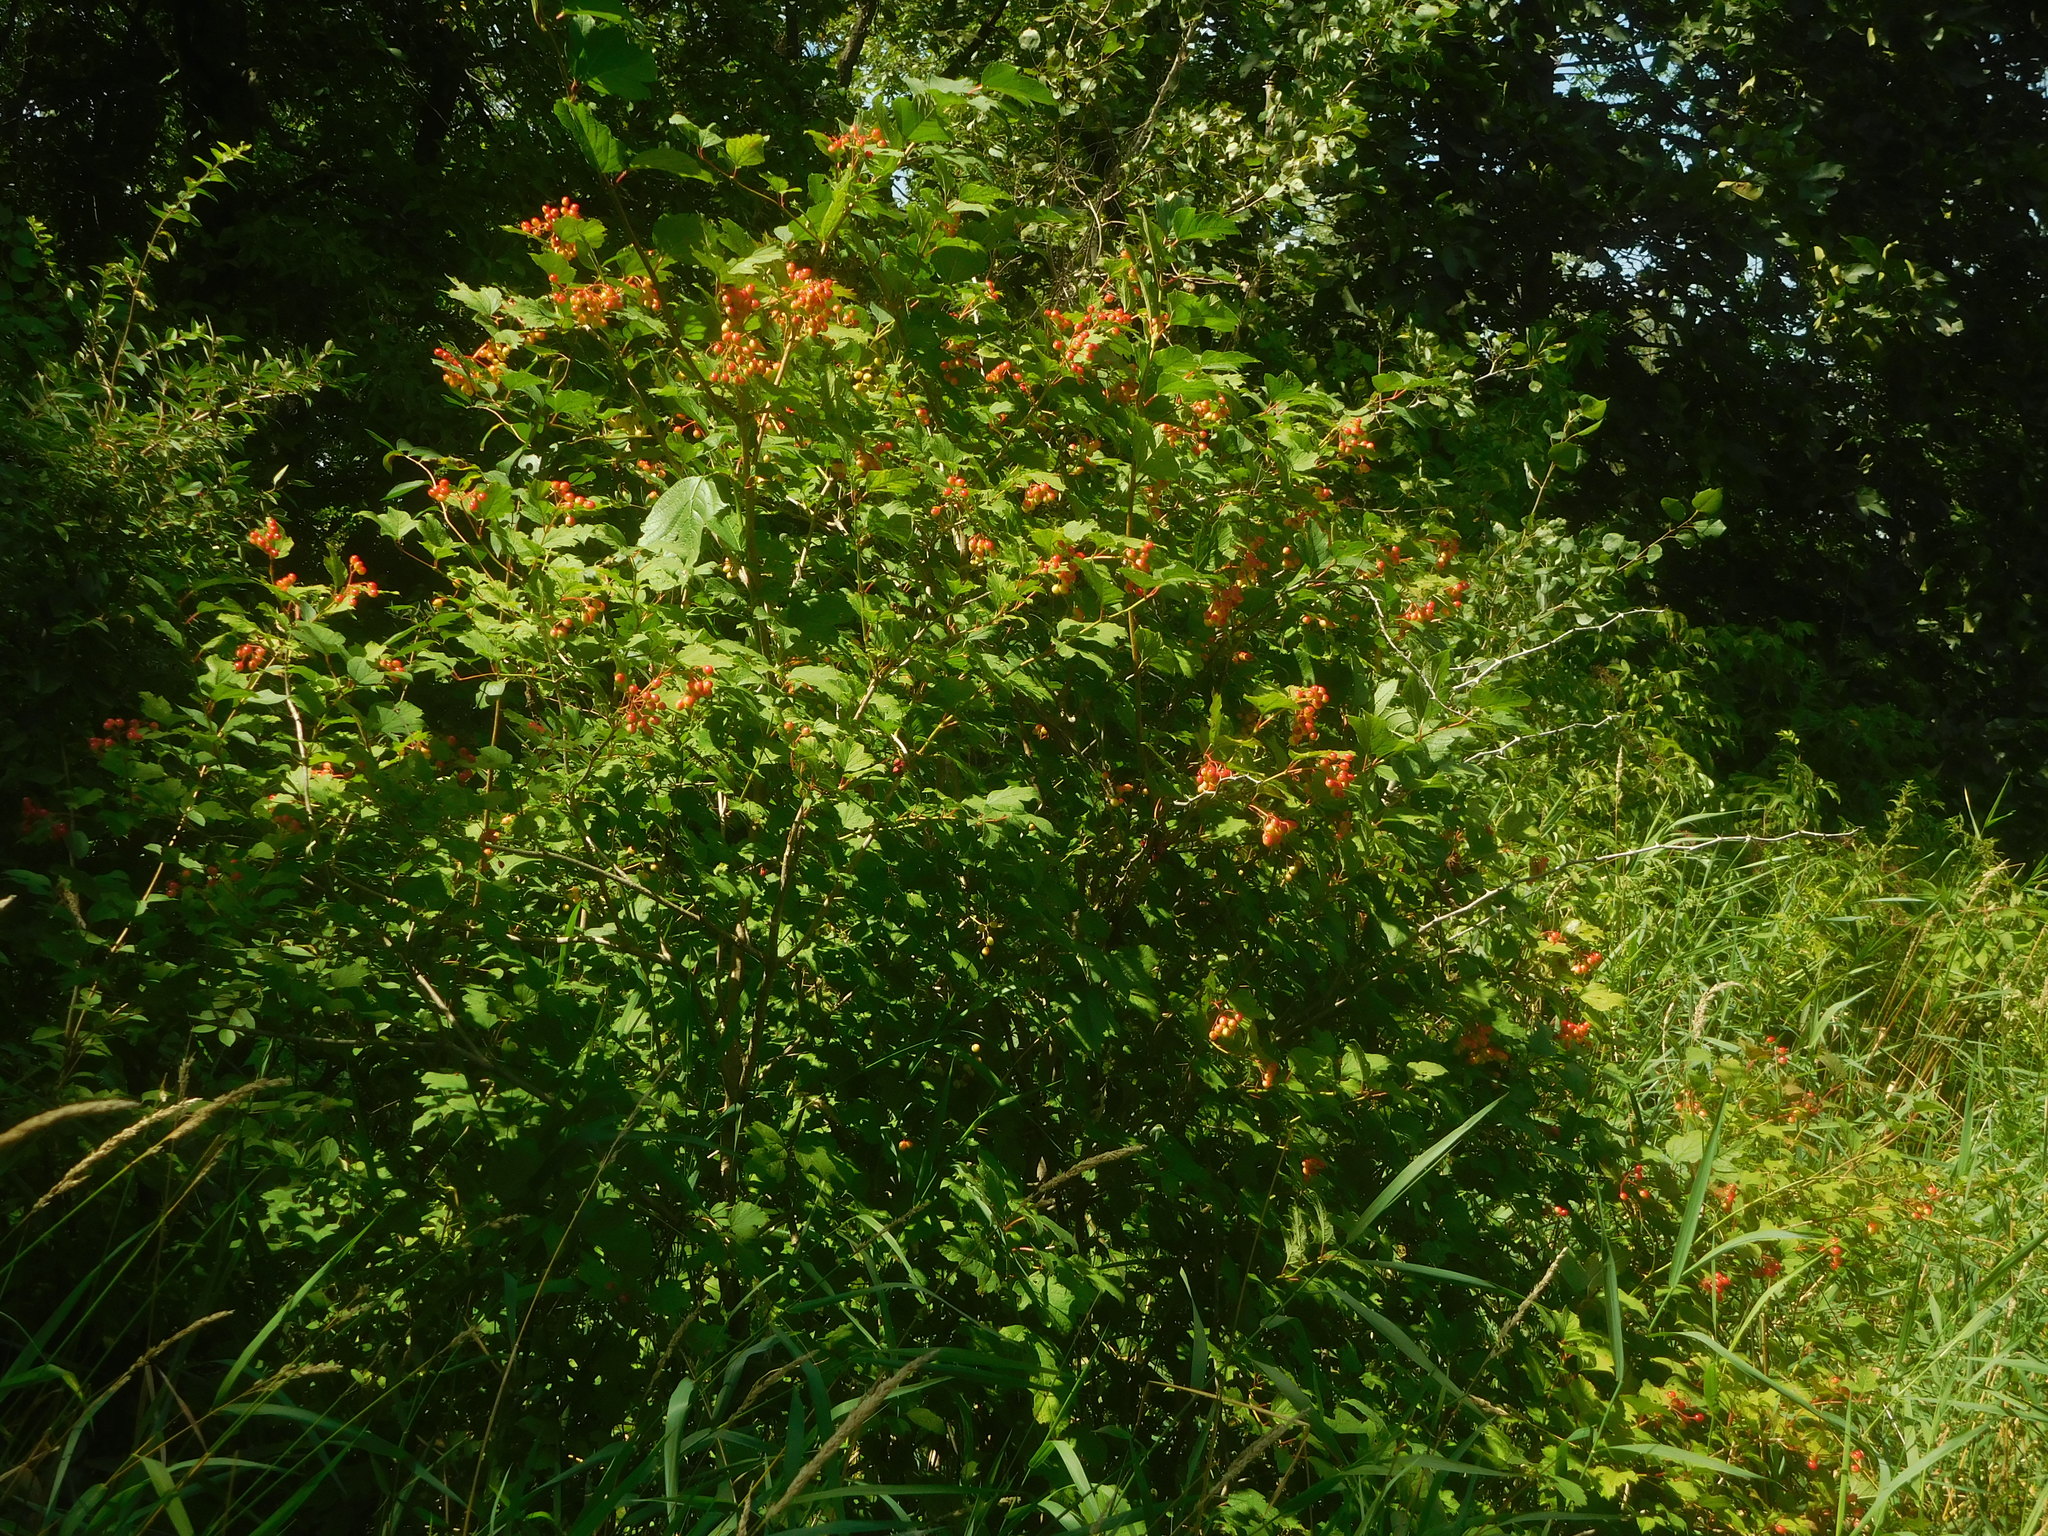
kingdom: Plantae
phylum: Tracheophyta
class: Magnoliopsida
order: Dipsacales
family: Viburnaceae
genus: Viburnum
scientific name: Viburnum opulus
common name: Guelder-rose
